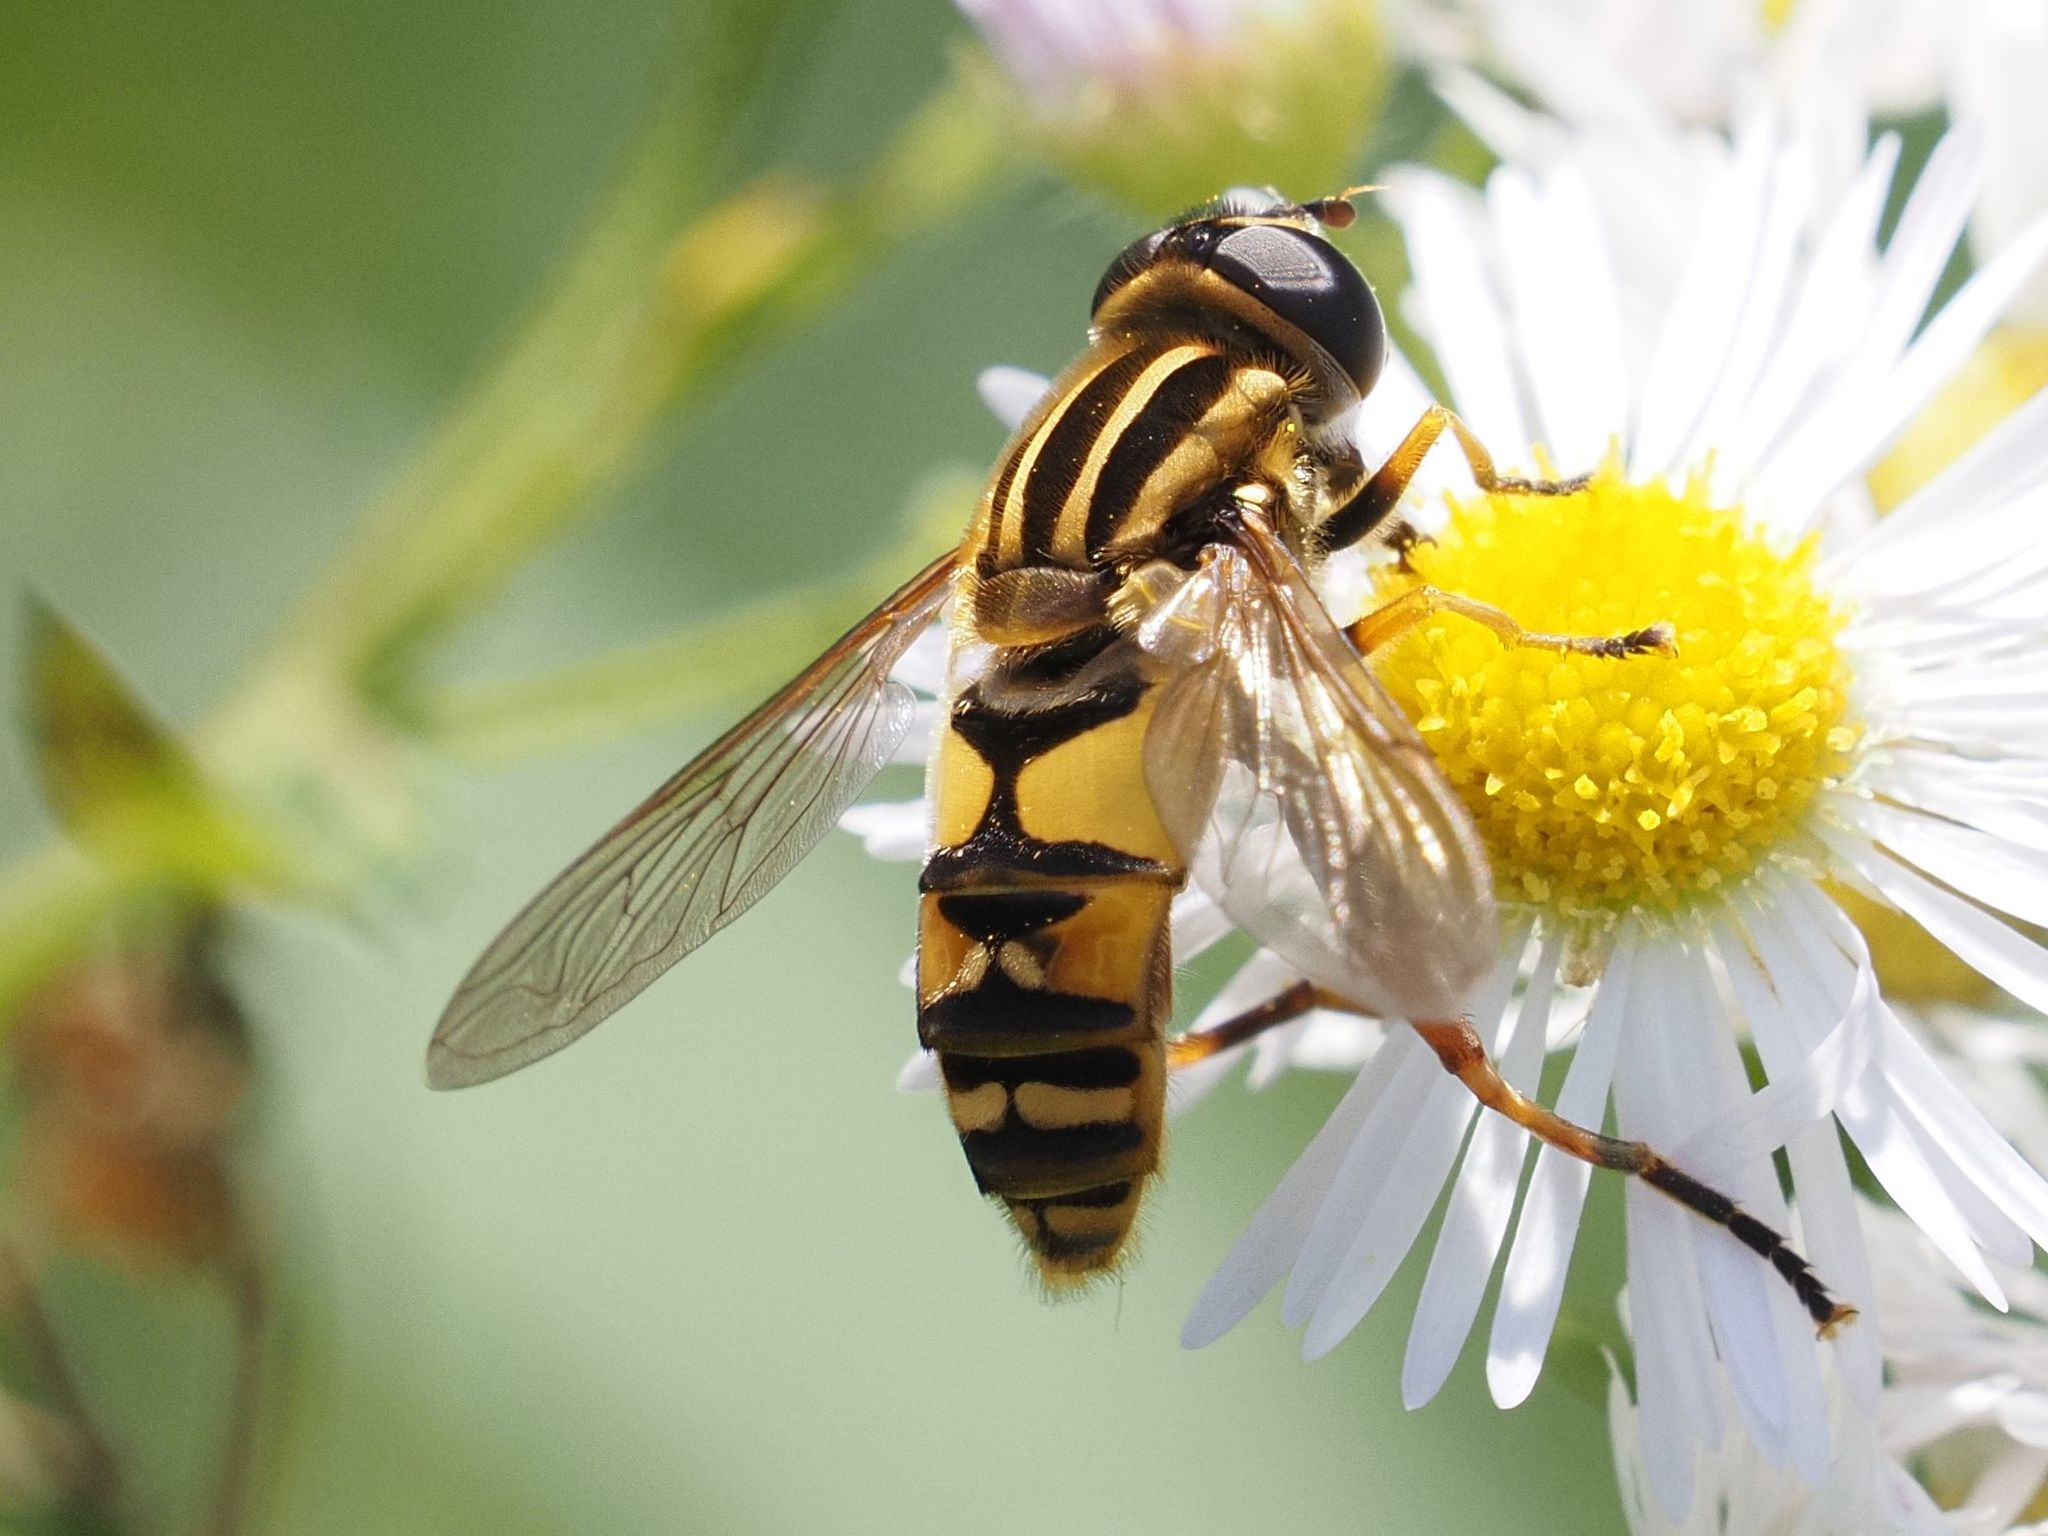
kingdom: Animalia
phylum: Arthropoda
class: Insecta
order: Diptera
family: Syrphidae
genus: Helophilus
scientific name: Helophilus pendulus
